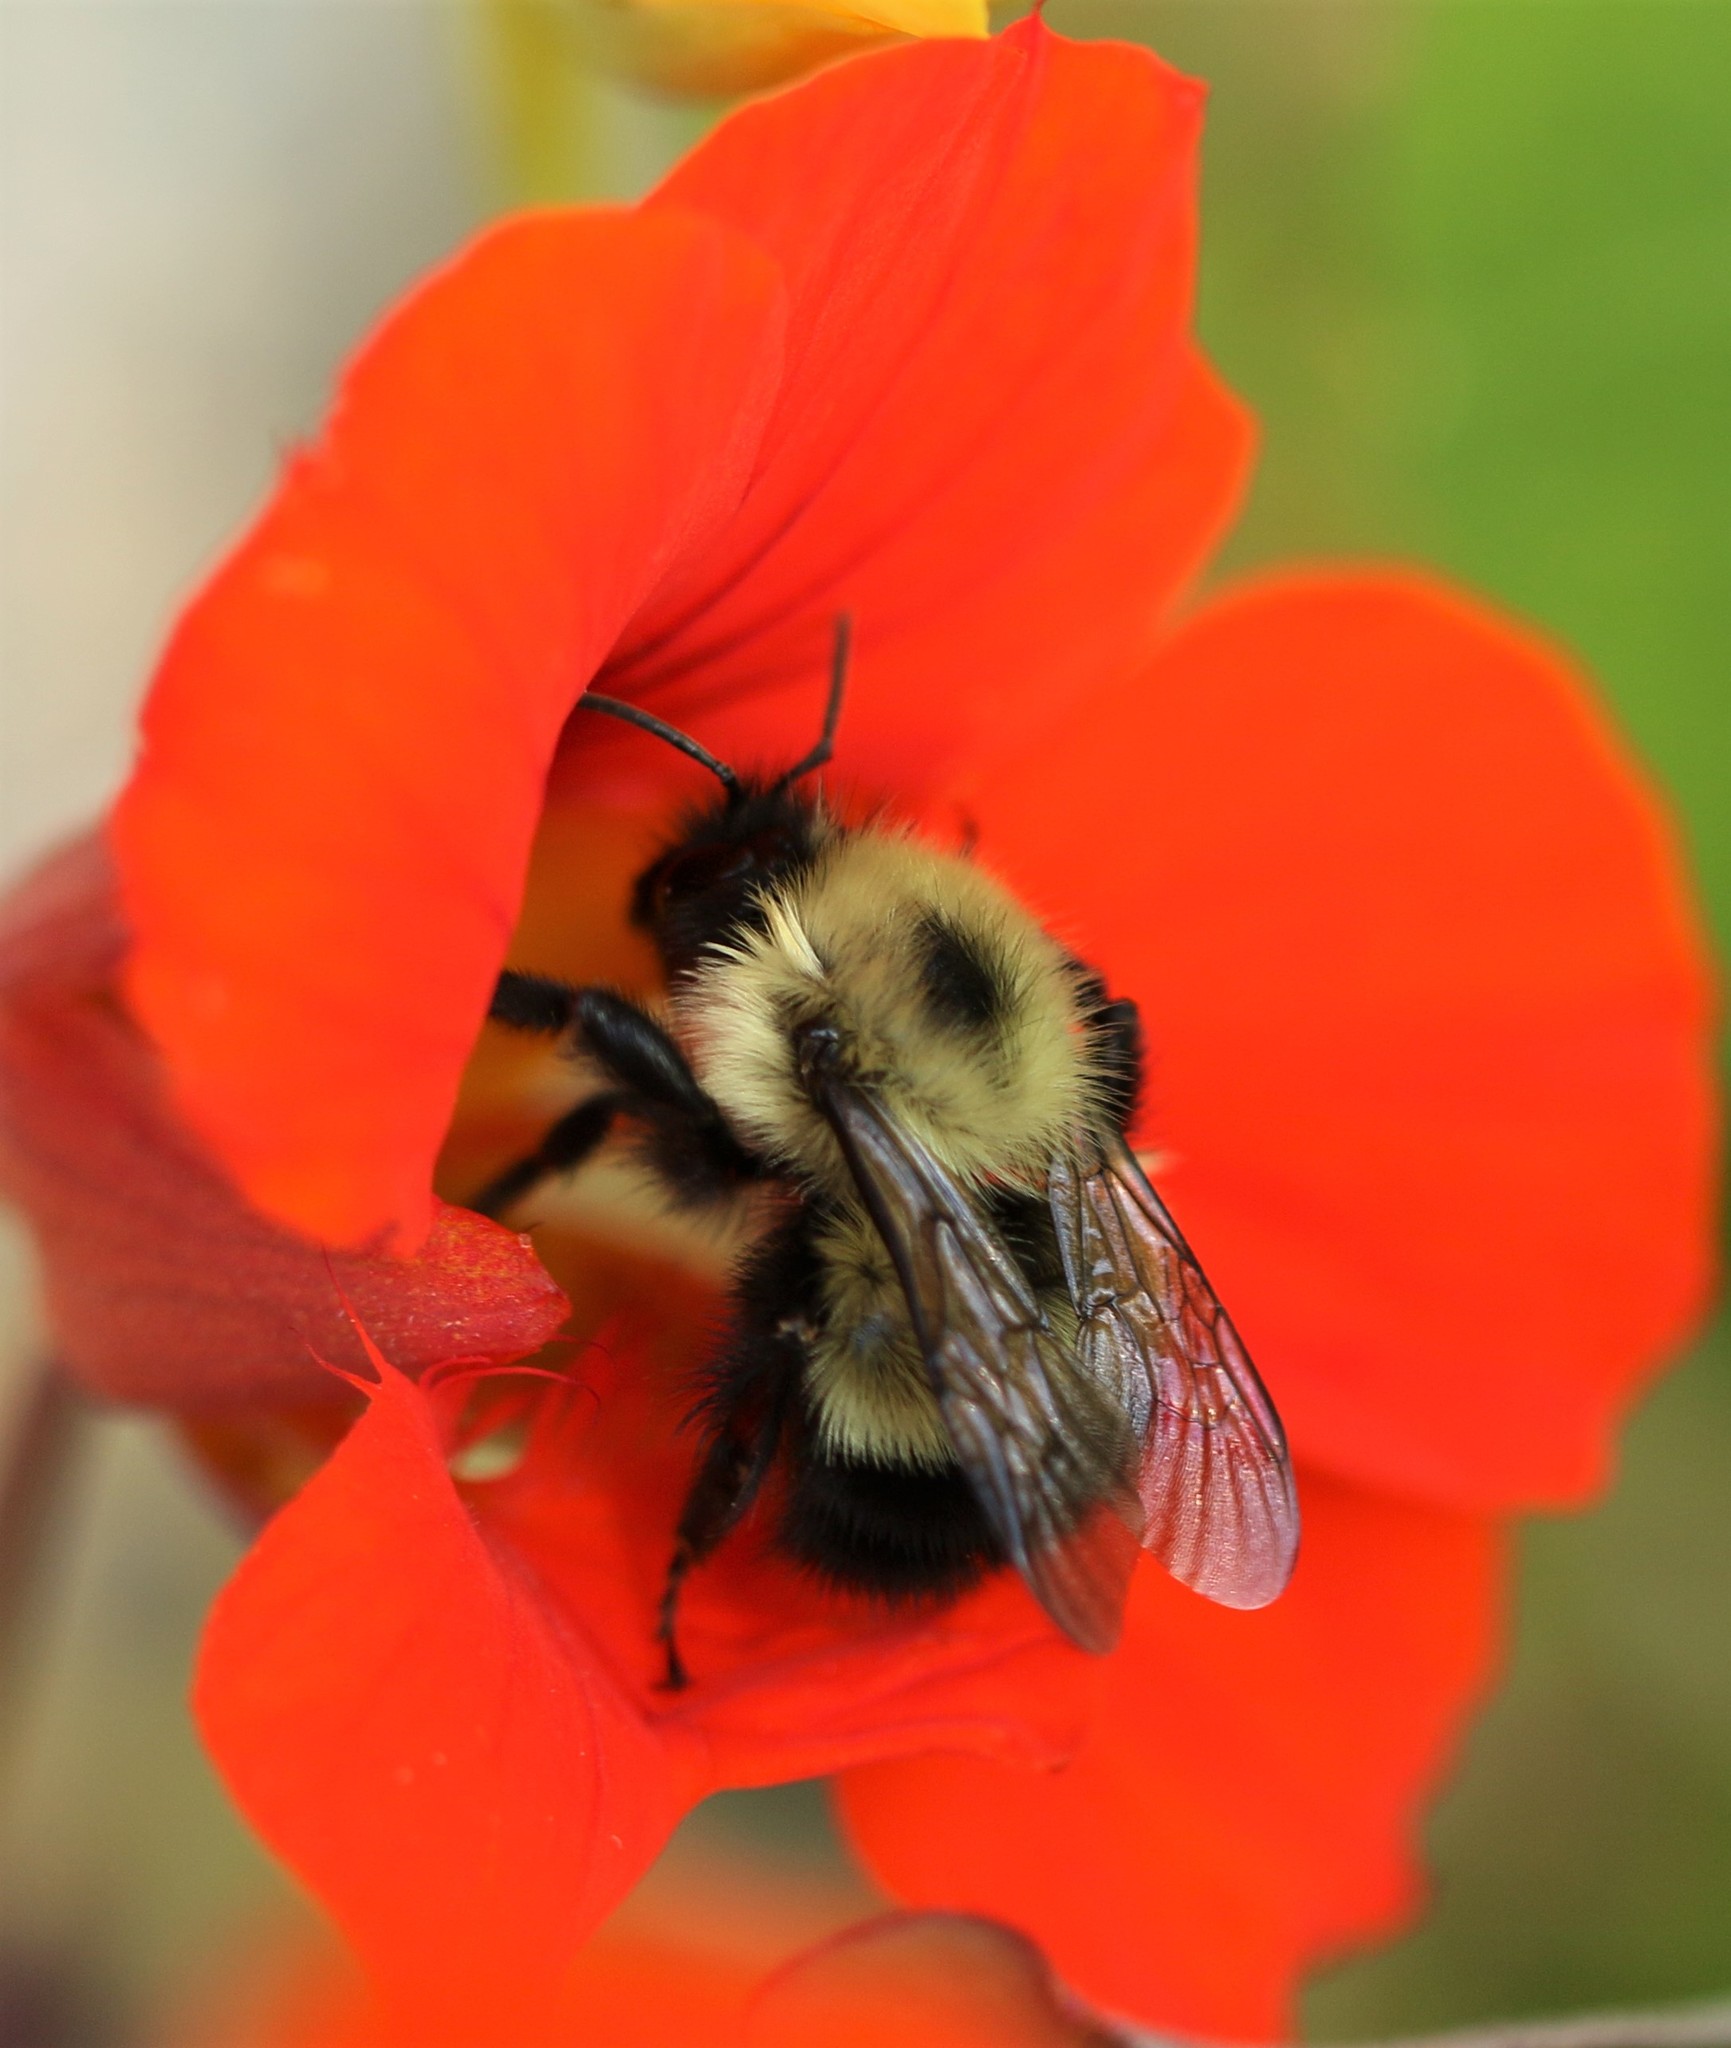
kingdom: Animalia
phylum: Arthropoda
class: Insecta
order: Hymenoptera
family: Apidae
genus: Pyrobombus
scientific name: Pyrobombus
